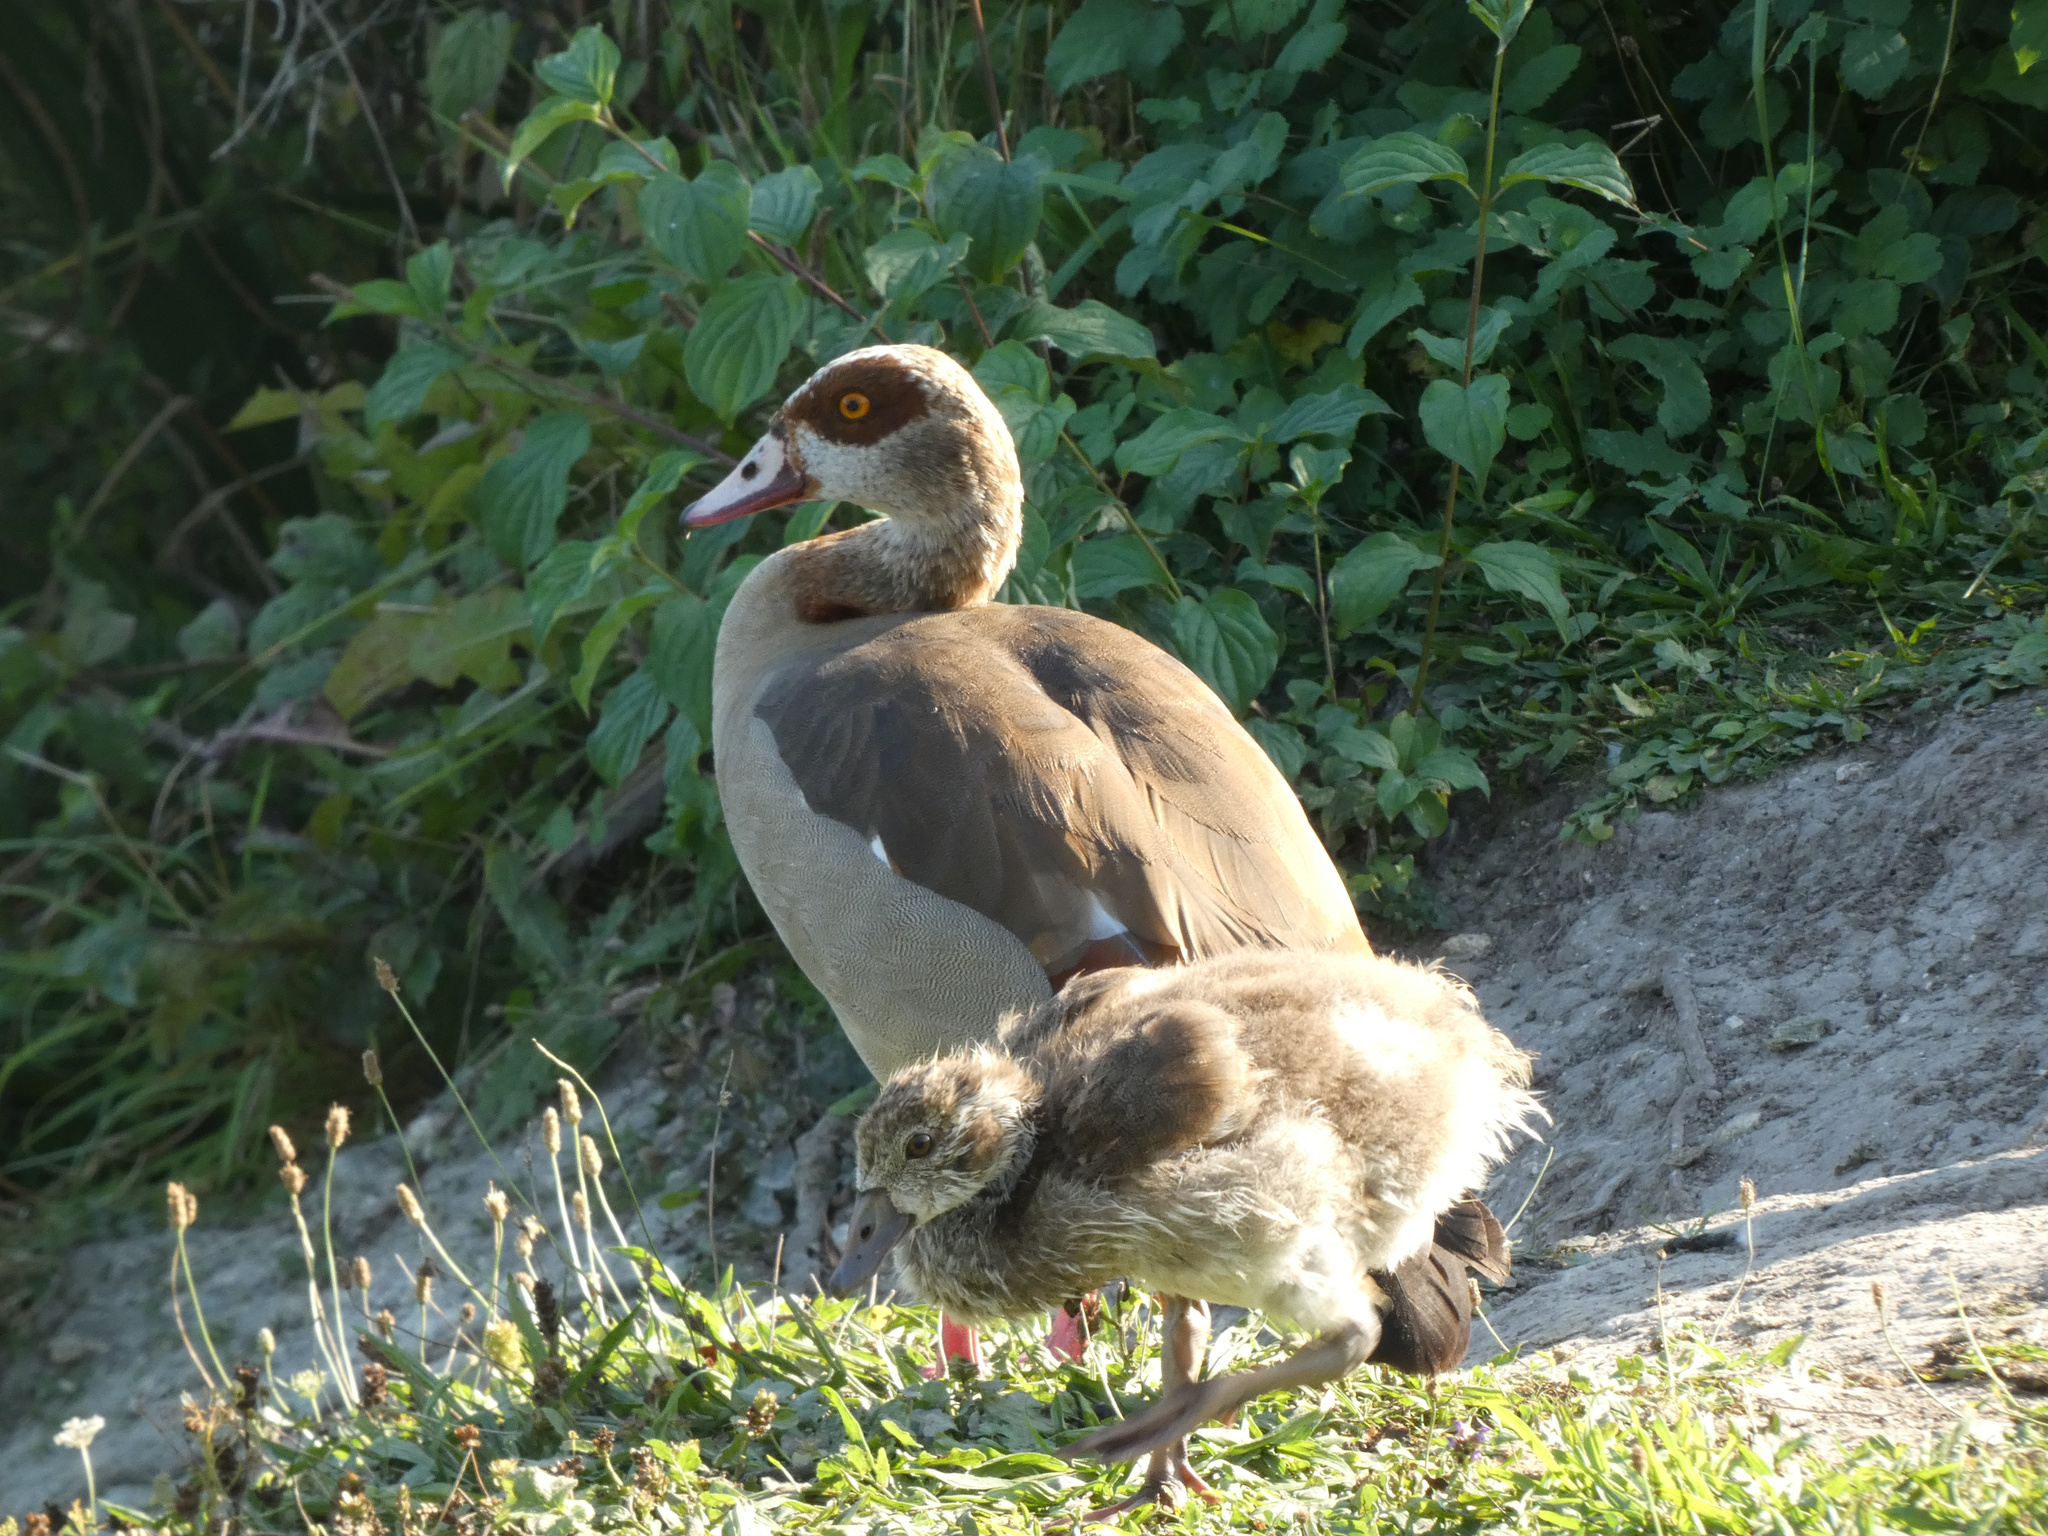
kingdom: Animalia
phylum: Chordata
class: Aves
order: Anseriformes
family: Anatidae
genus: Alopochen
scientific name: Alopochen aegyptiaca
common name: Egyptian goose
